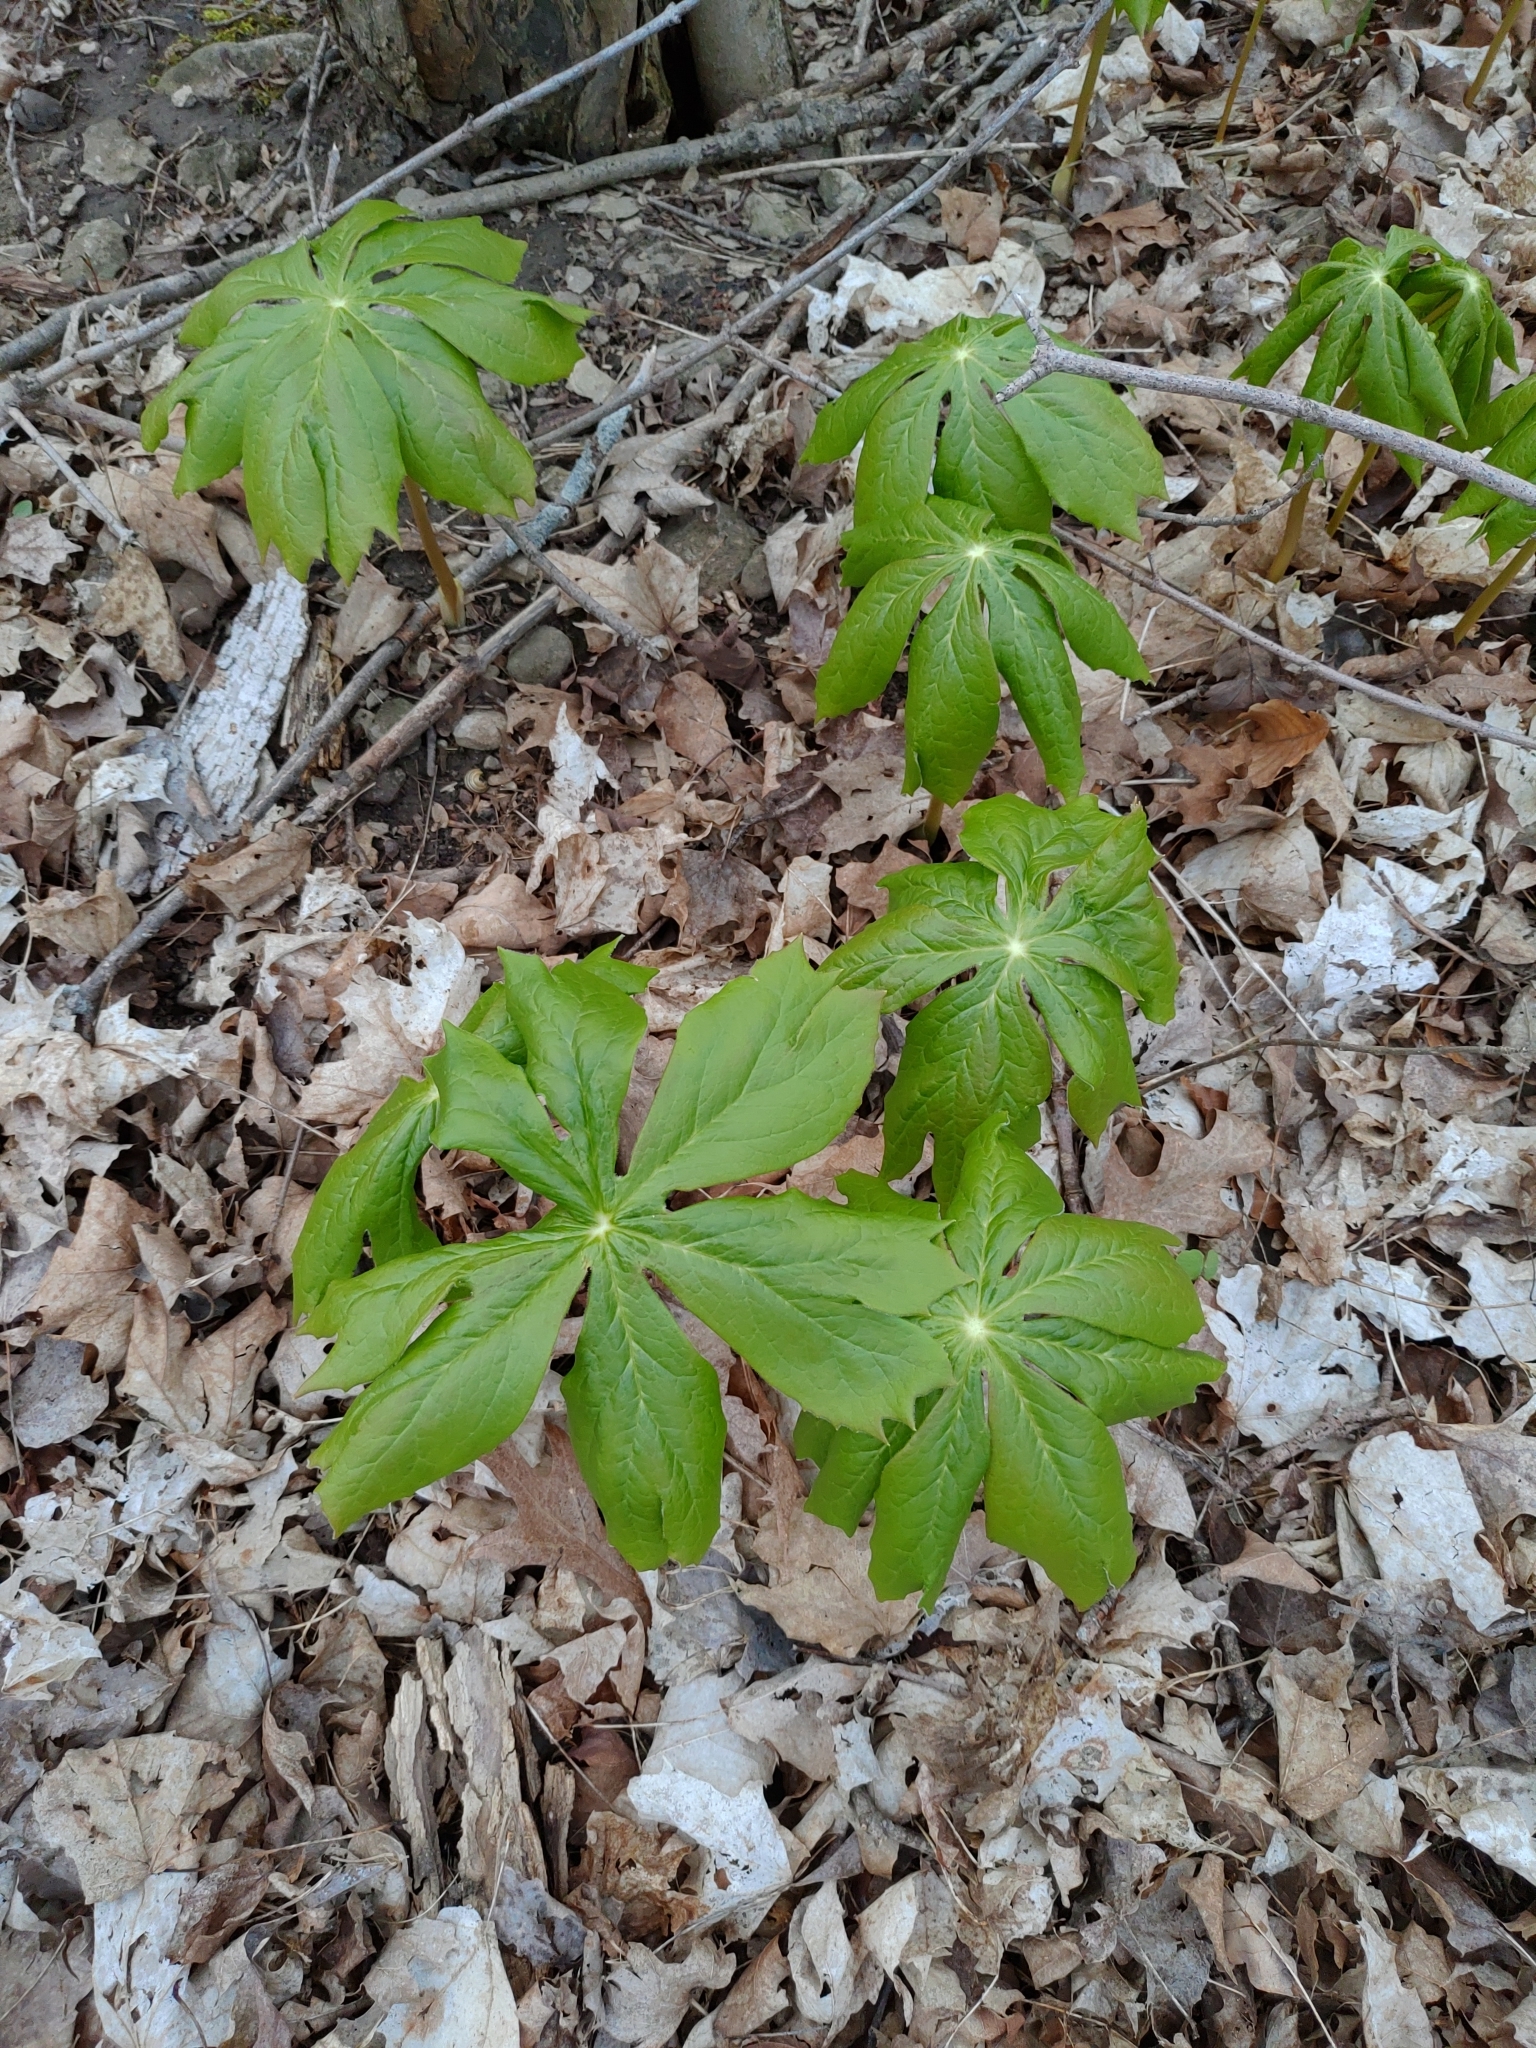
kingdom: Plantae
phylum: Tracheophyta
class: Magnoliopsida
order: Ranunculales
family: Berberidaceae
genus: Podophyllum
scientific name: Podophyllum peltatum
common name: Wild mandrake
